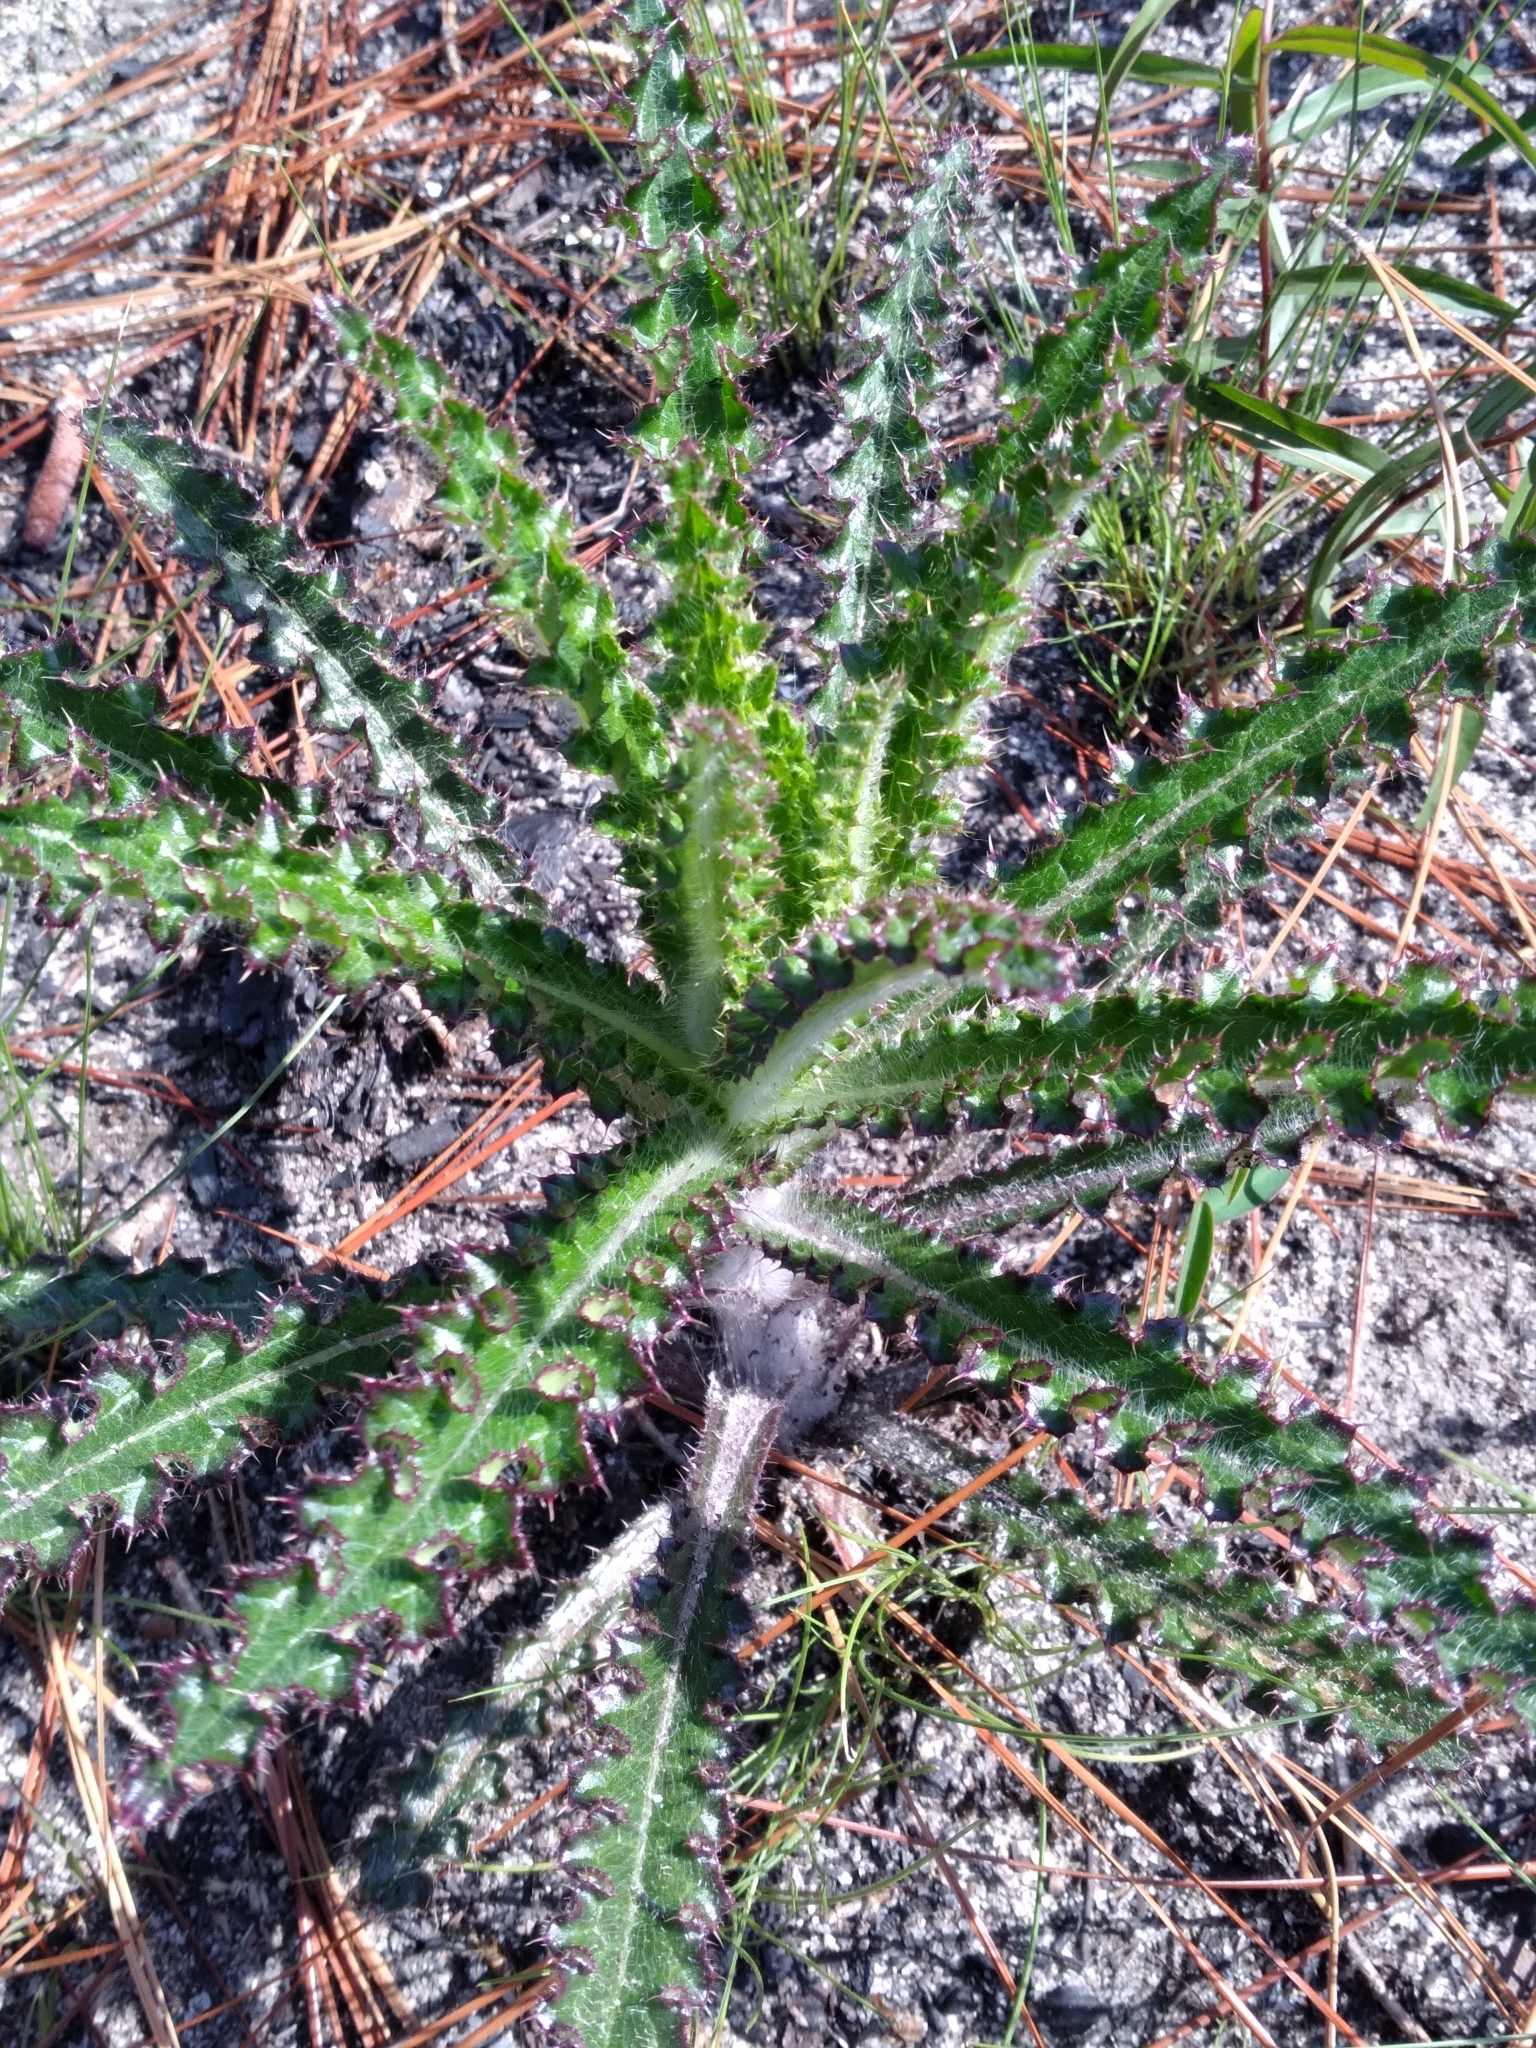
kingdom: Plantae
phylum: Tracheophyta
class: Magnoliopsida
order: Asterales
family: Asteraceae
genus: Cirsium
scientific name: Cirsium repandum
